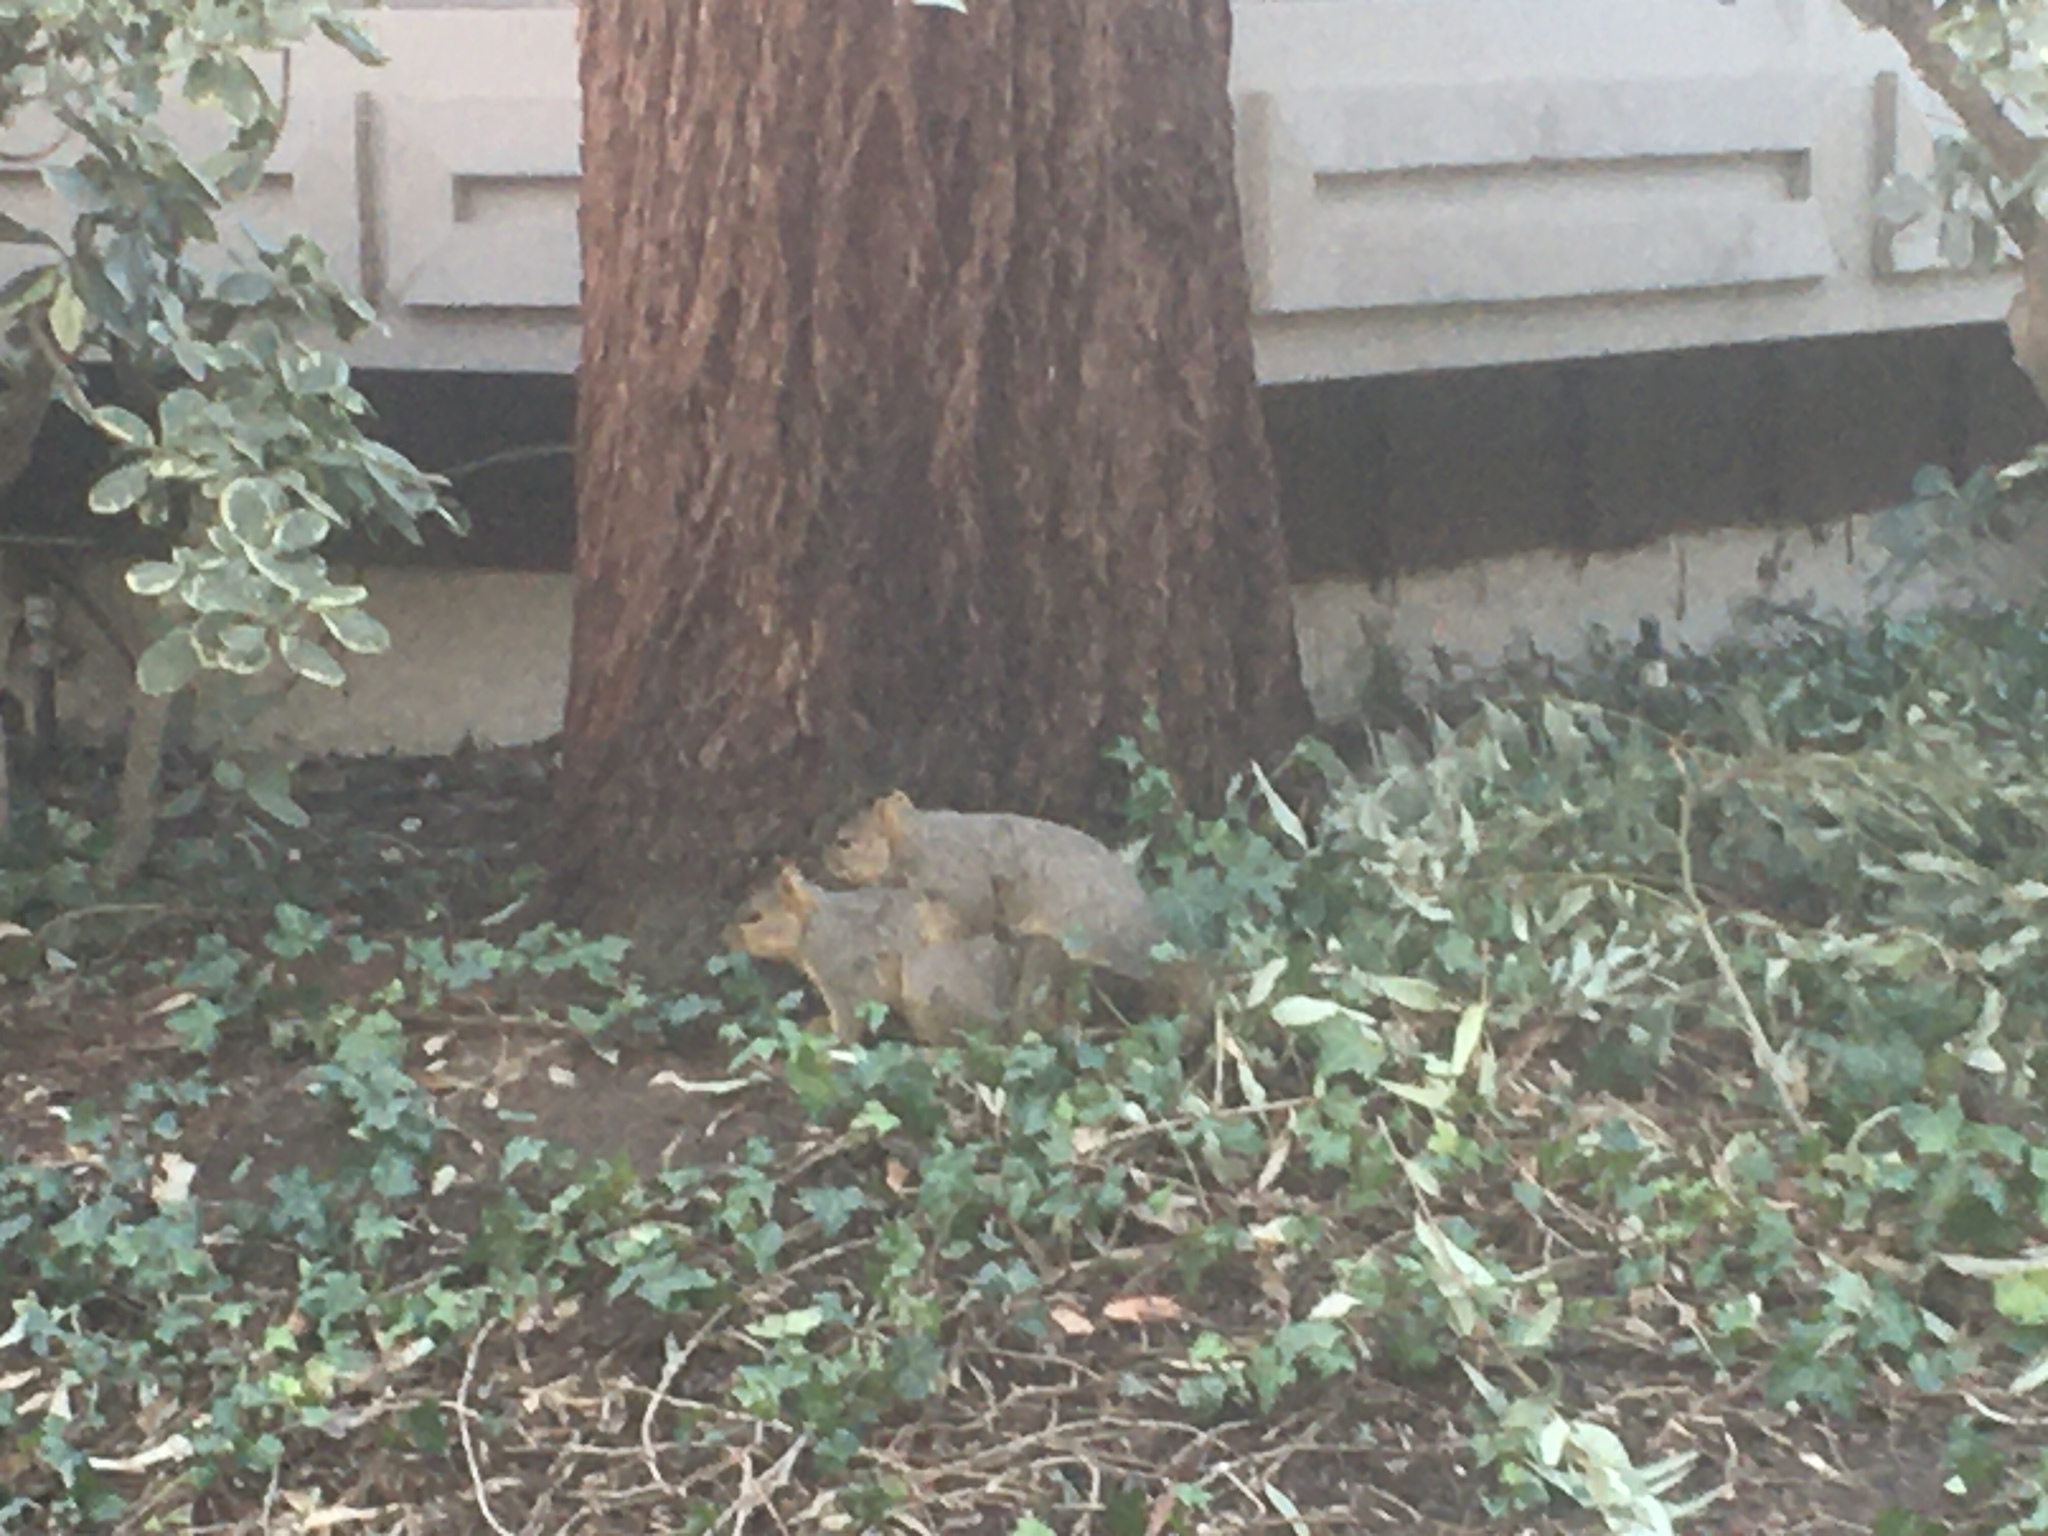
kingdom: Animalia
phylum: Chordata
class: Mammalia
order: Rodentia
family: Sciuridae
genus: Sciurus
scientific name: Sciurus niger
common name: Fox squirrel
